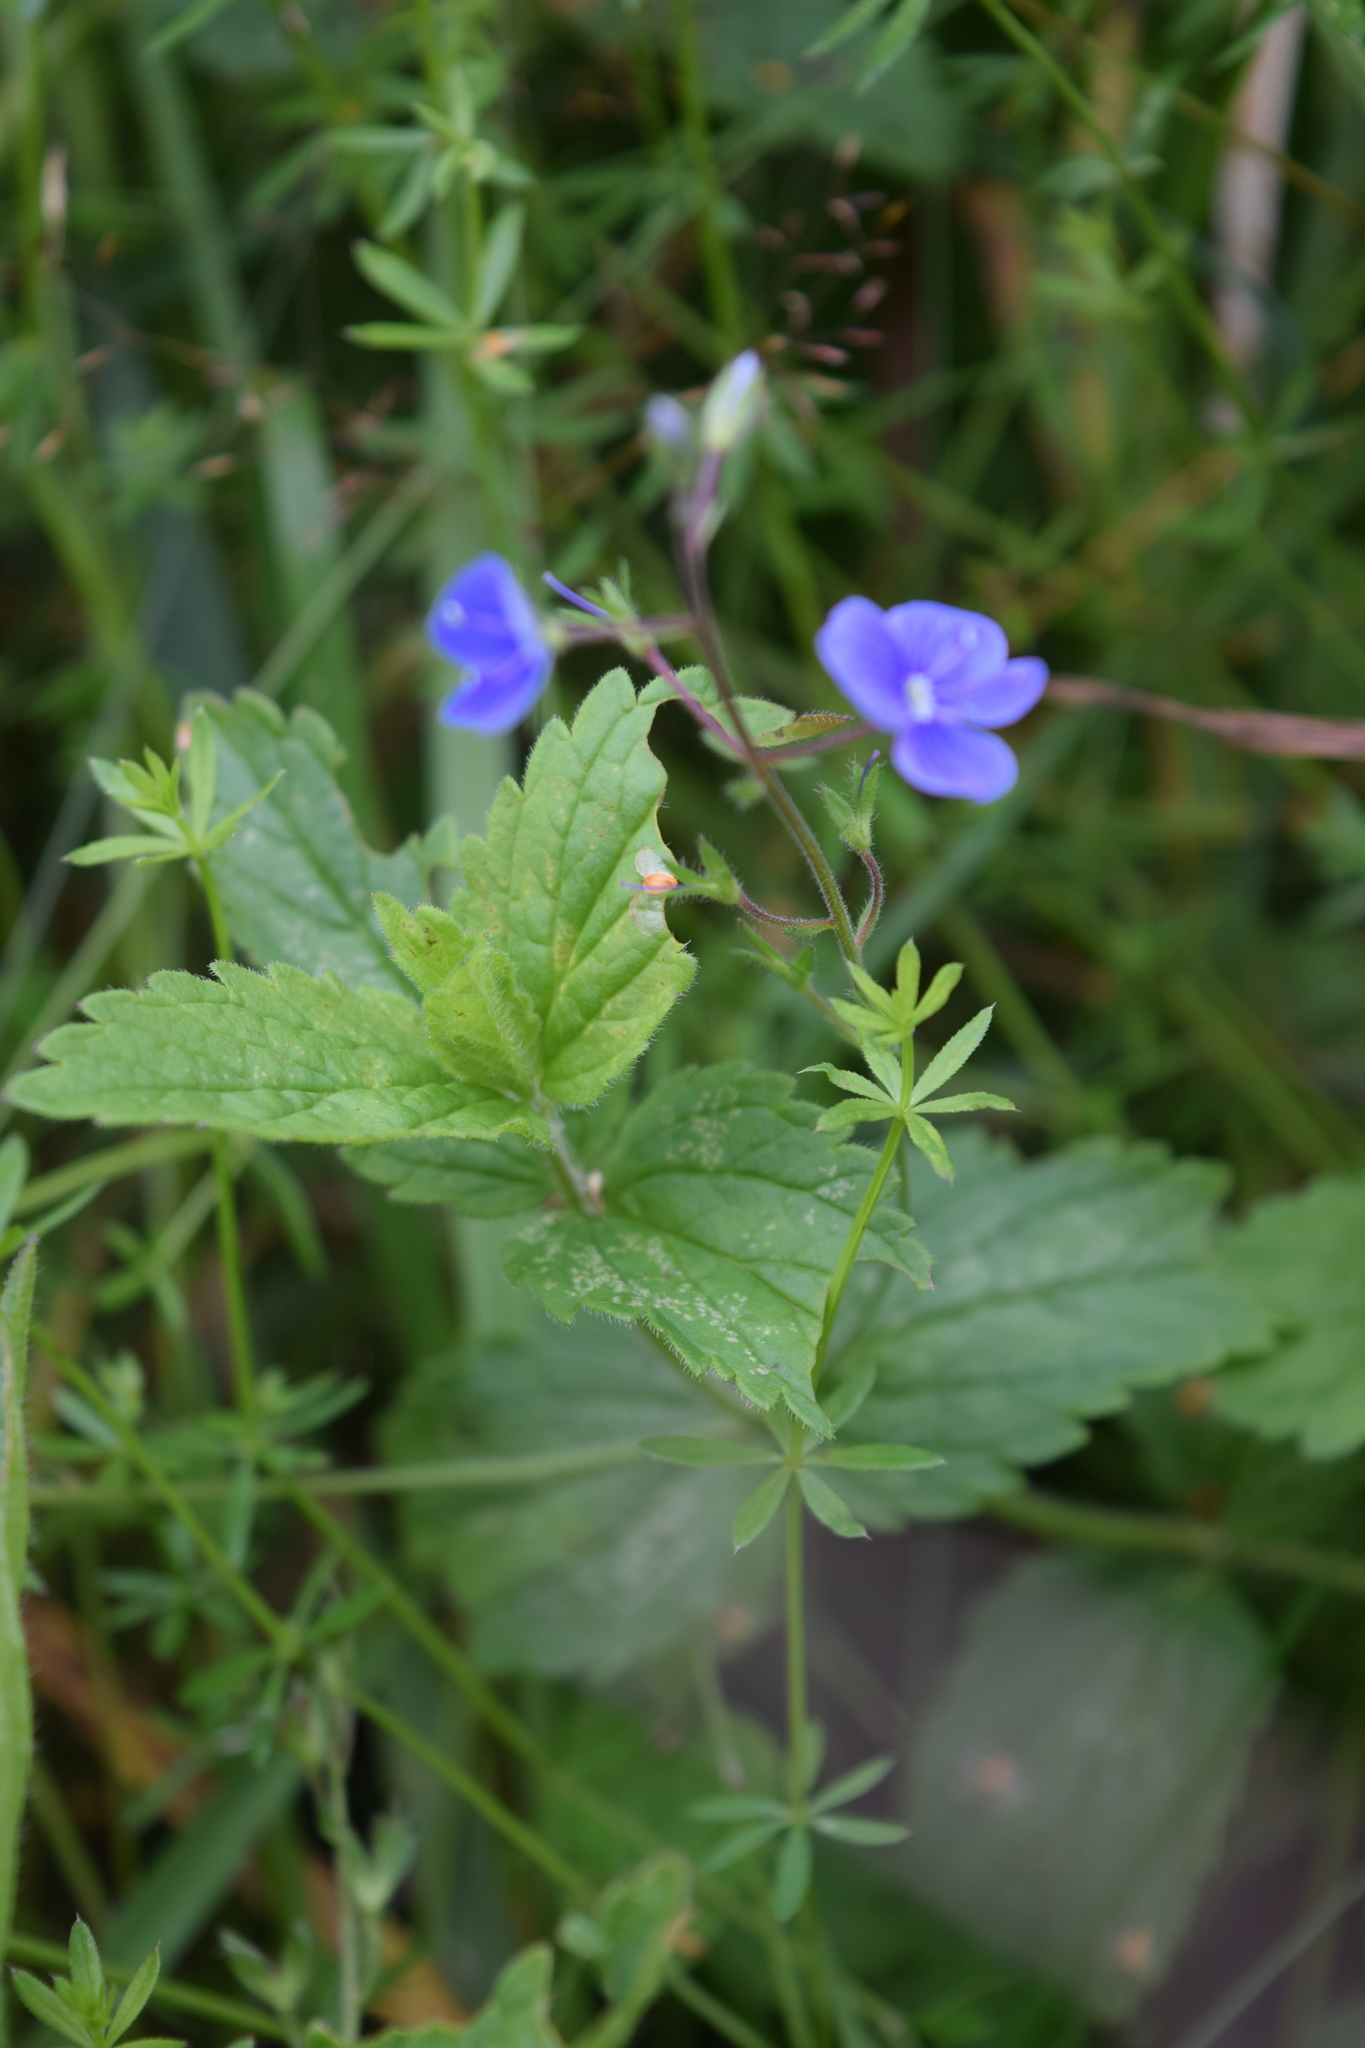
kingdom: Plantae
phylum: Tracheophyta
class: Magnoliopsida
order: Lamiales
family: Plantaginaceae
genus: Veronica
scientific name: Veronica chamaedrys
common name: Germander speedwell
